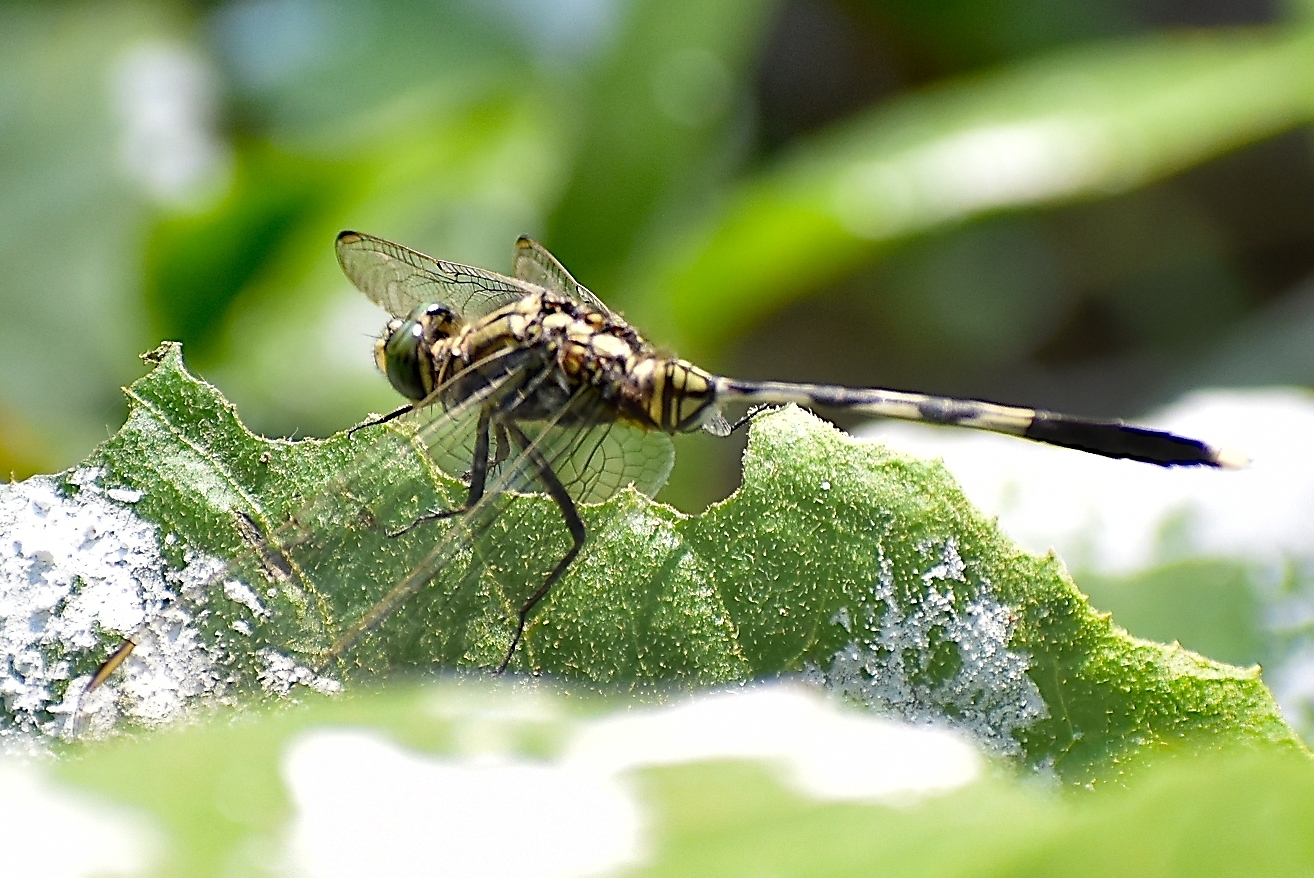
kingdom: Animalia
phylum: Arthropoda
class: Insecta
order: Odonata
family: Libellulidae
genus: Orthetrum
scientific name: Orthetrum sabina
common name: Slender skimmer
